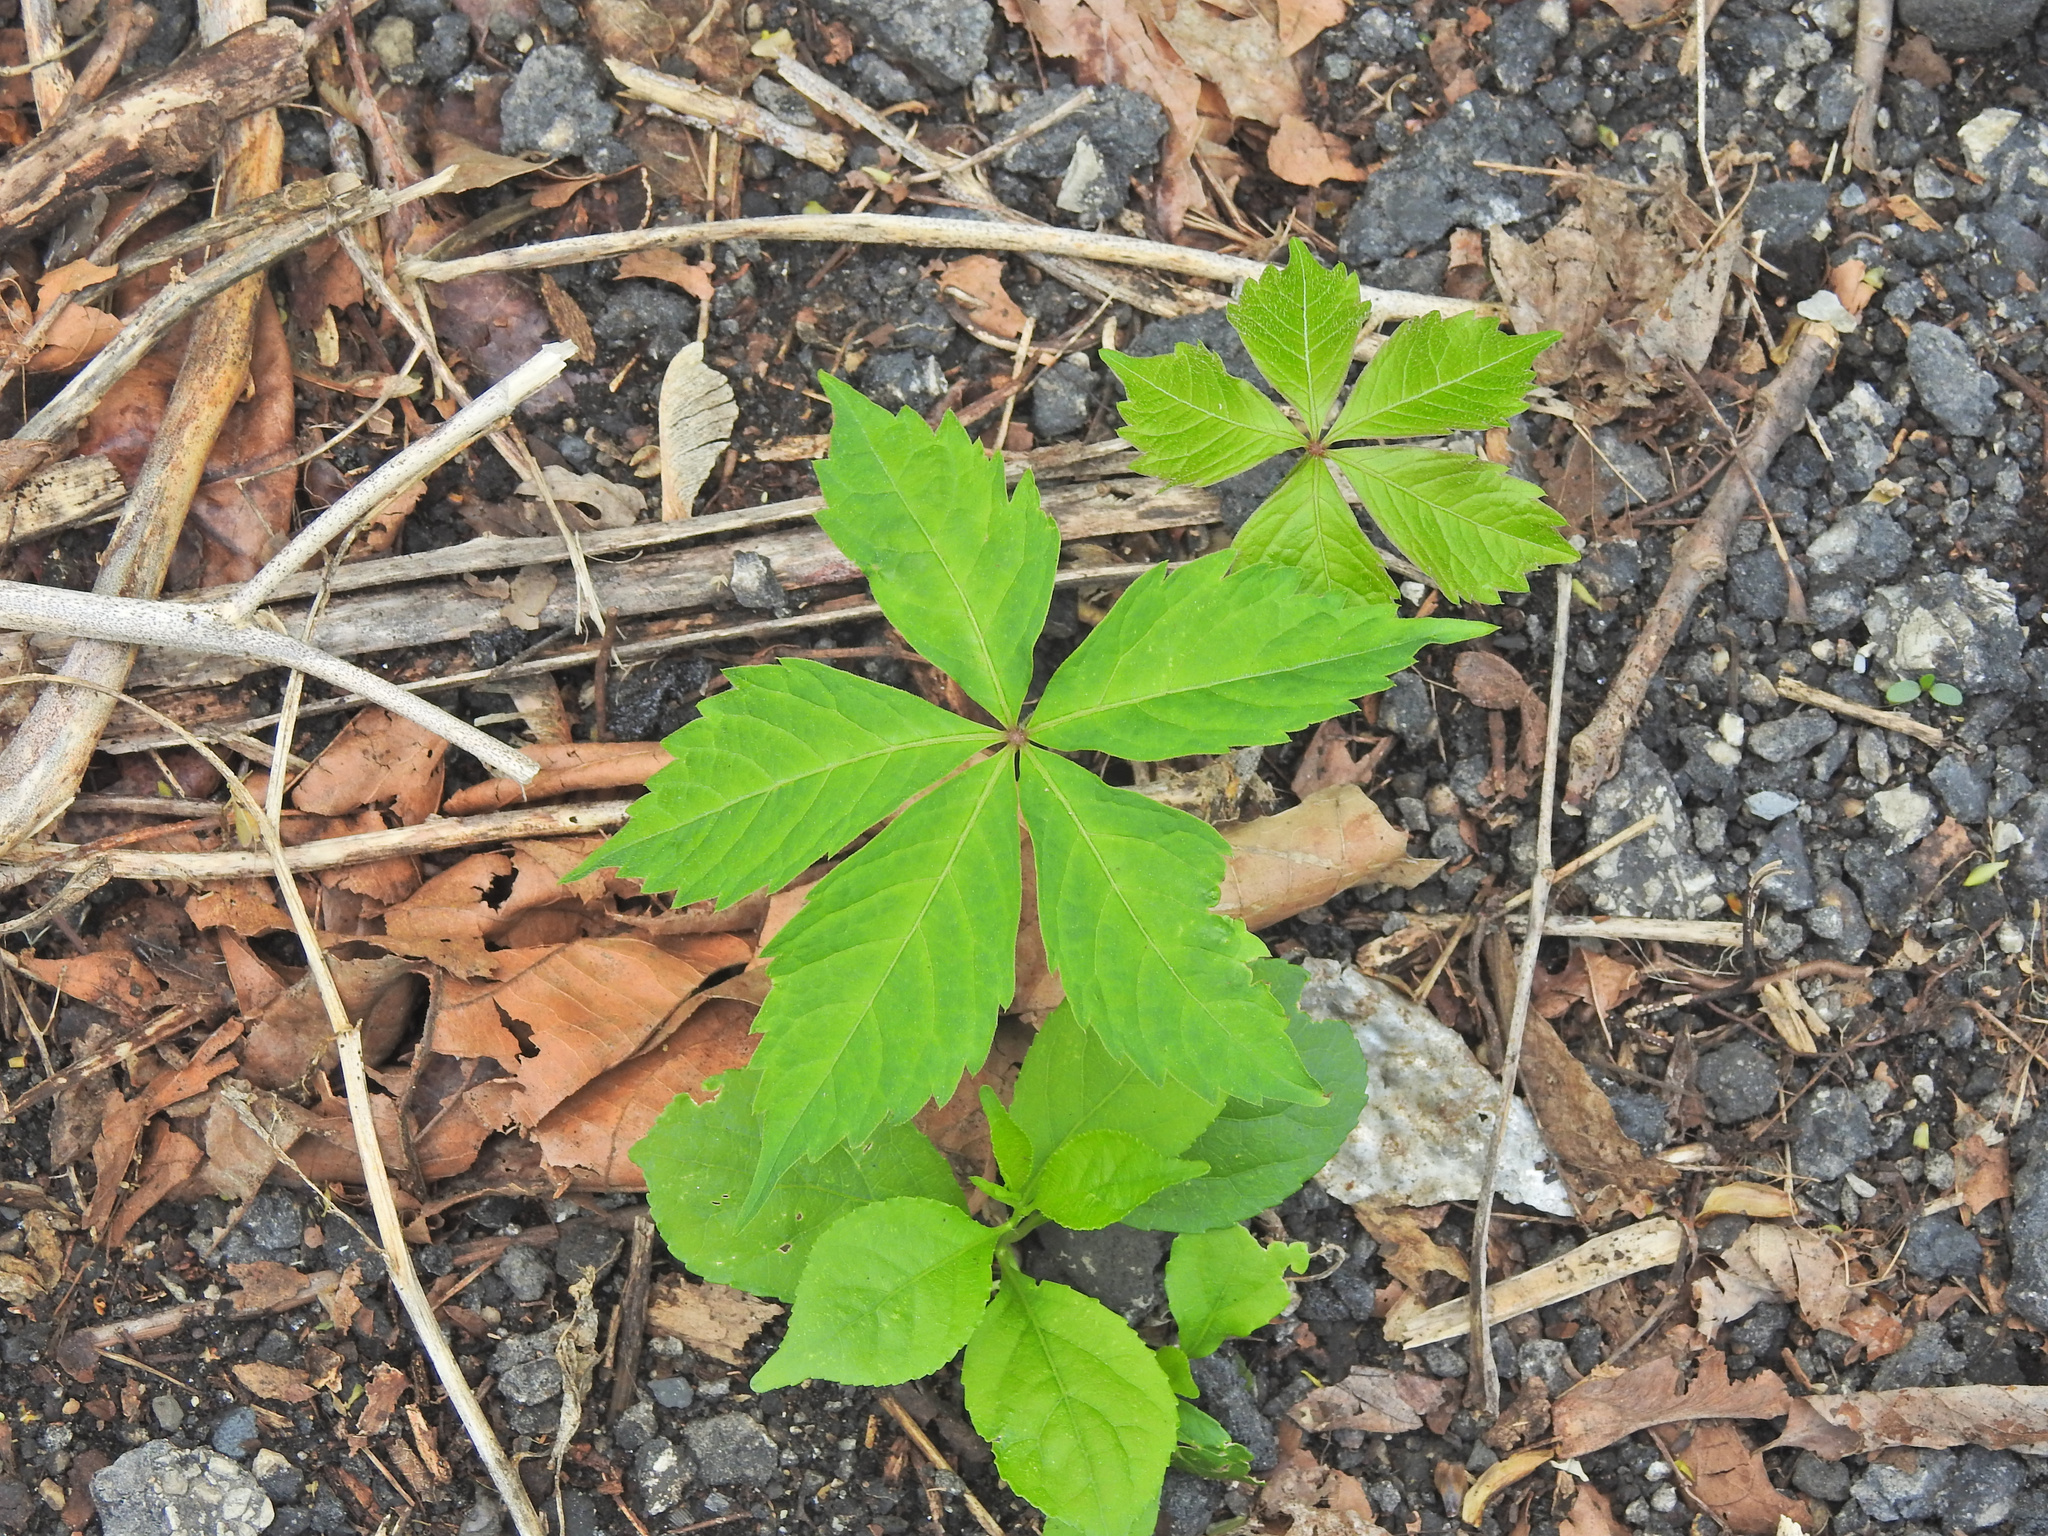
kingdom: Plantae
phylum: Tracheophyta
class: Magnoliopsida
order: Vitales
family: Vitaceae
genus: Parthenocissus
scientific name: Parthenocissus quinquefolia
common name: Virginia-creeper
